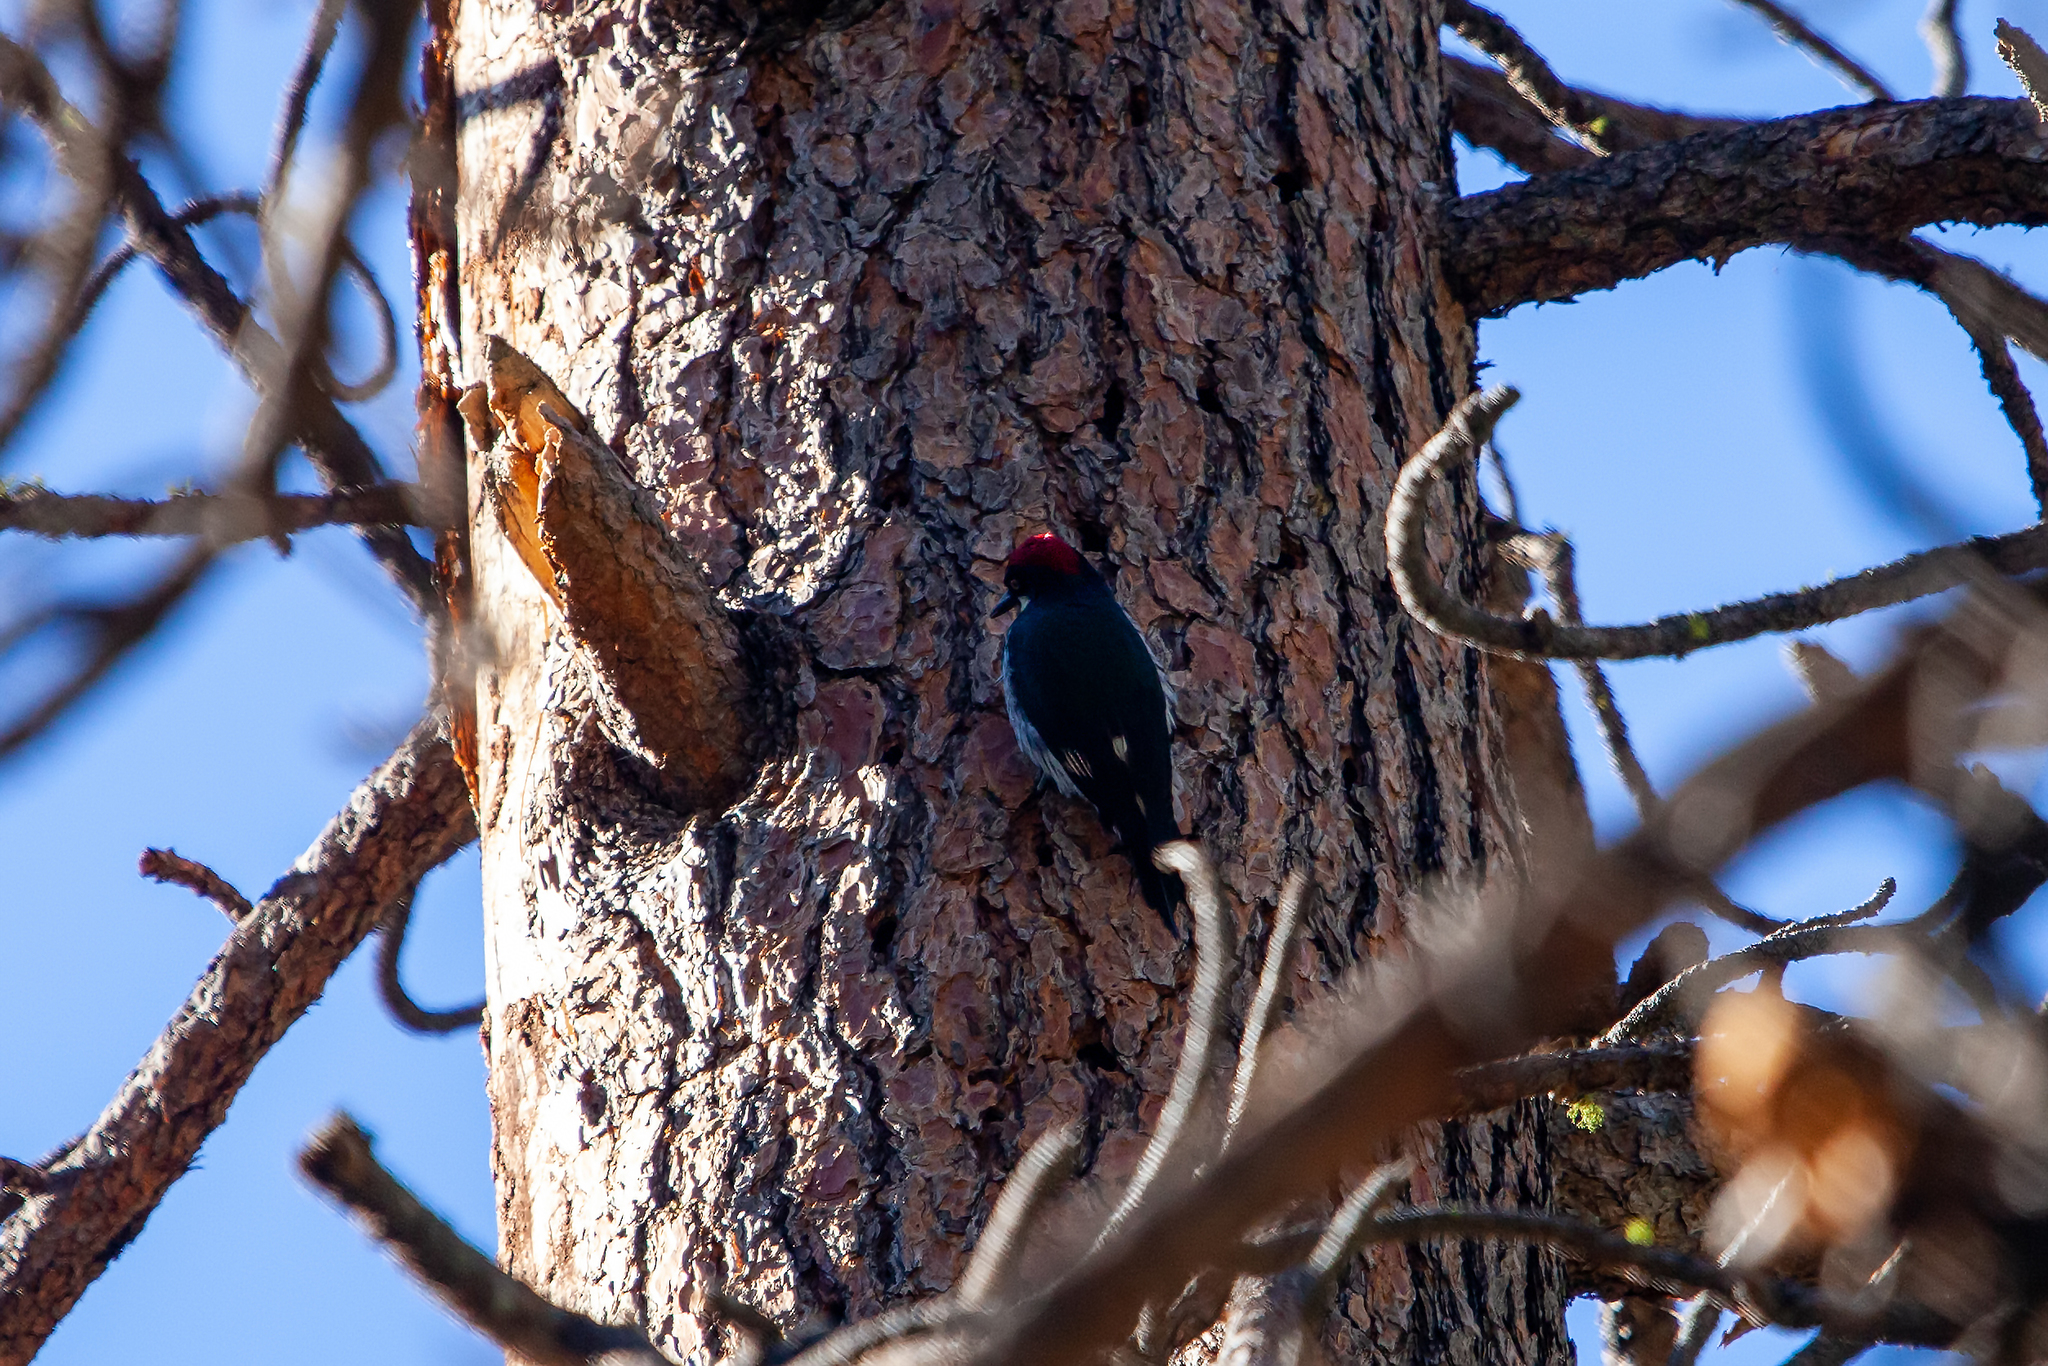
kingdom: Animalia
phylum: Chordata
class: Aves
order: Piciformes
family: Picidae
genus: Melanerpes
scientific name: Melanerpes formicivorus
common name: Acorn woodpecker
